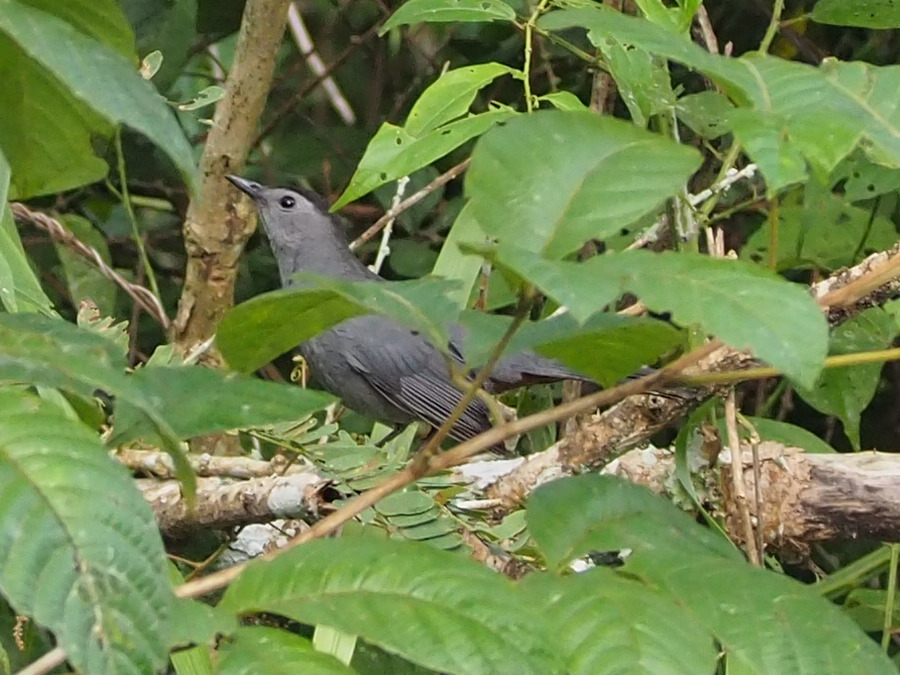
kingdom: Animalia
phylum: Chordata
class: Aves
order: Passeriformes
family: Mimidae
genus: Dumetella
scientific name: Dumetella carolinensis
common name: Gray catbird
